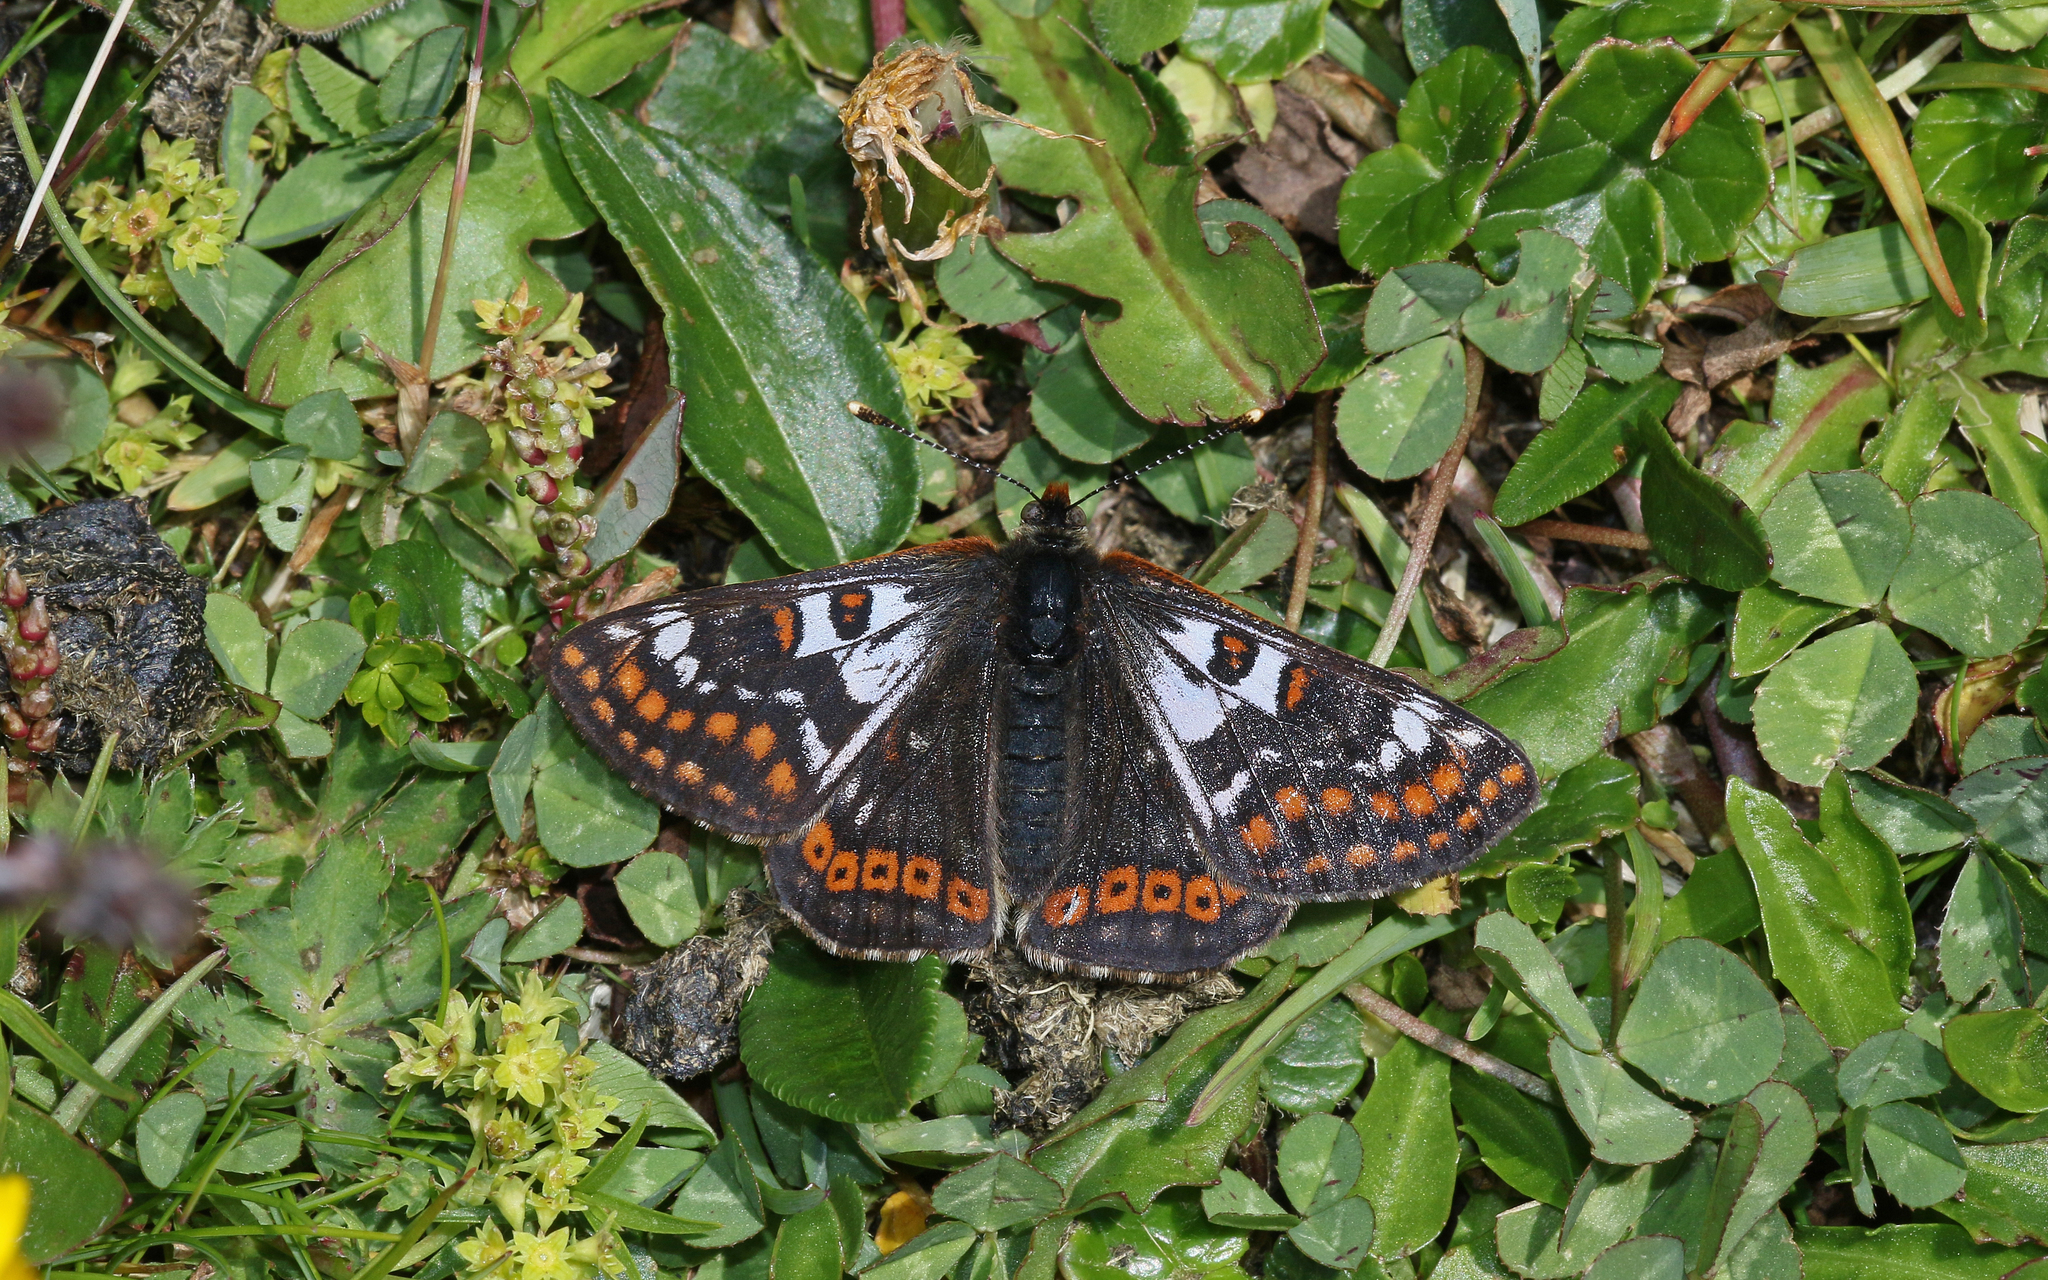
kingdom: Animalia
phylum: Arthropoda
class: Insecta
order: Lepidoptera
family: Nymphalidae
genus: Hypodryas
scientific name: Hypodryas cynthia
